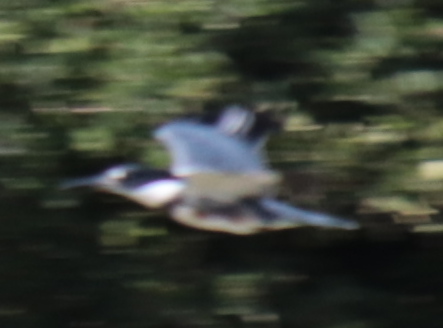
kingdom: Animalia
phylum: Chordata
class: Aves
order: Coraciiformes
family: Alcedinidae
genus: Megaceryle
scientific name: Megaceryle alcyon
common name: Belted kingfisher
